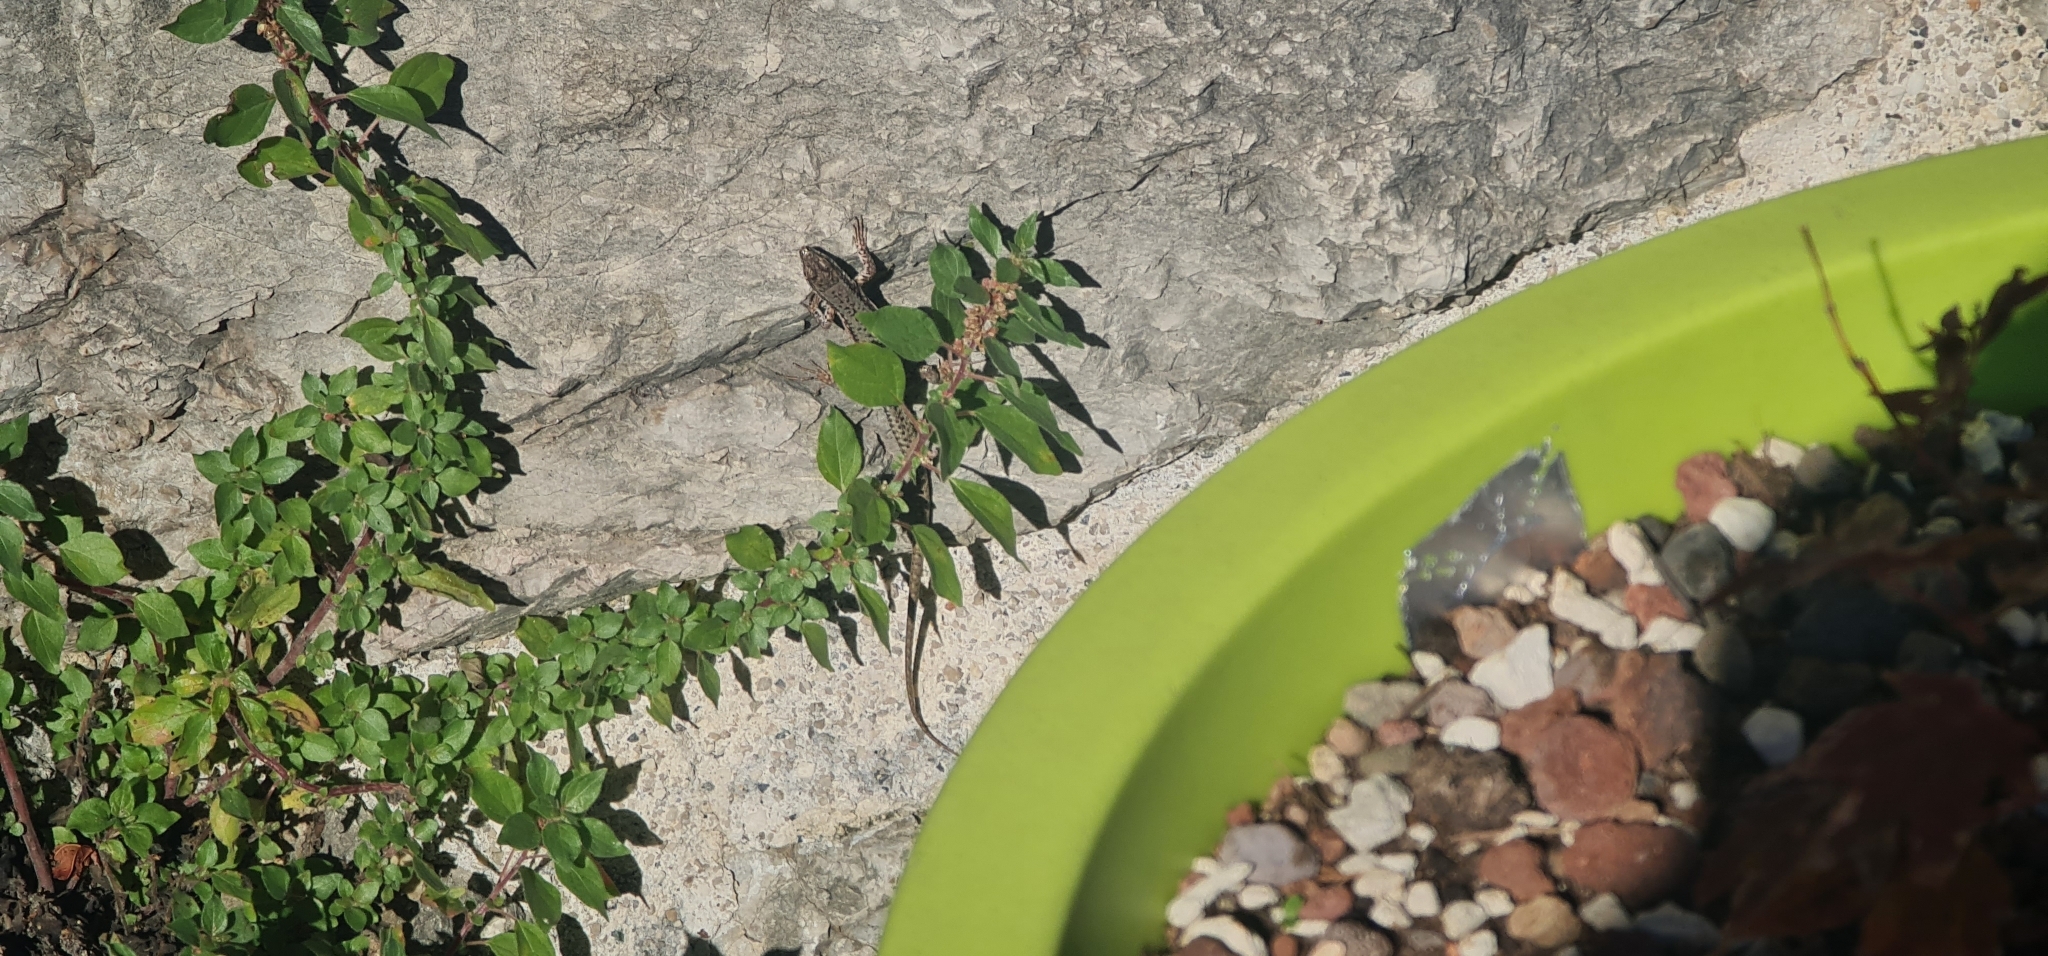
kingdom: Animalia
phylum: Chordata
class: Squamata
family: Lacertidae
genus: Podarcis
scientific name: Podarcis muralis
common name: Common wall lizard
